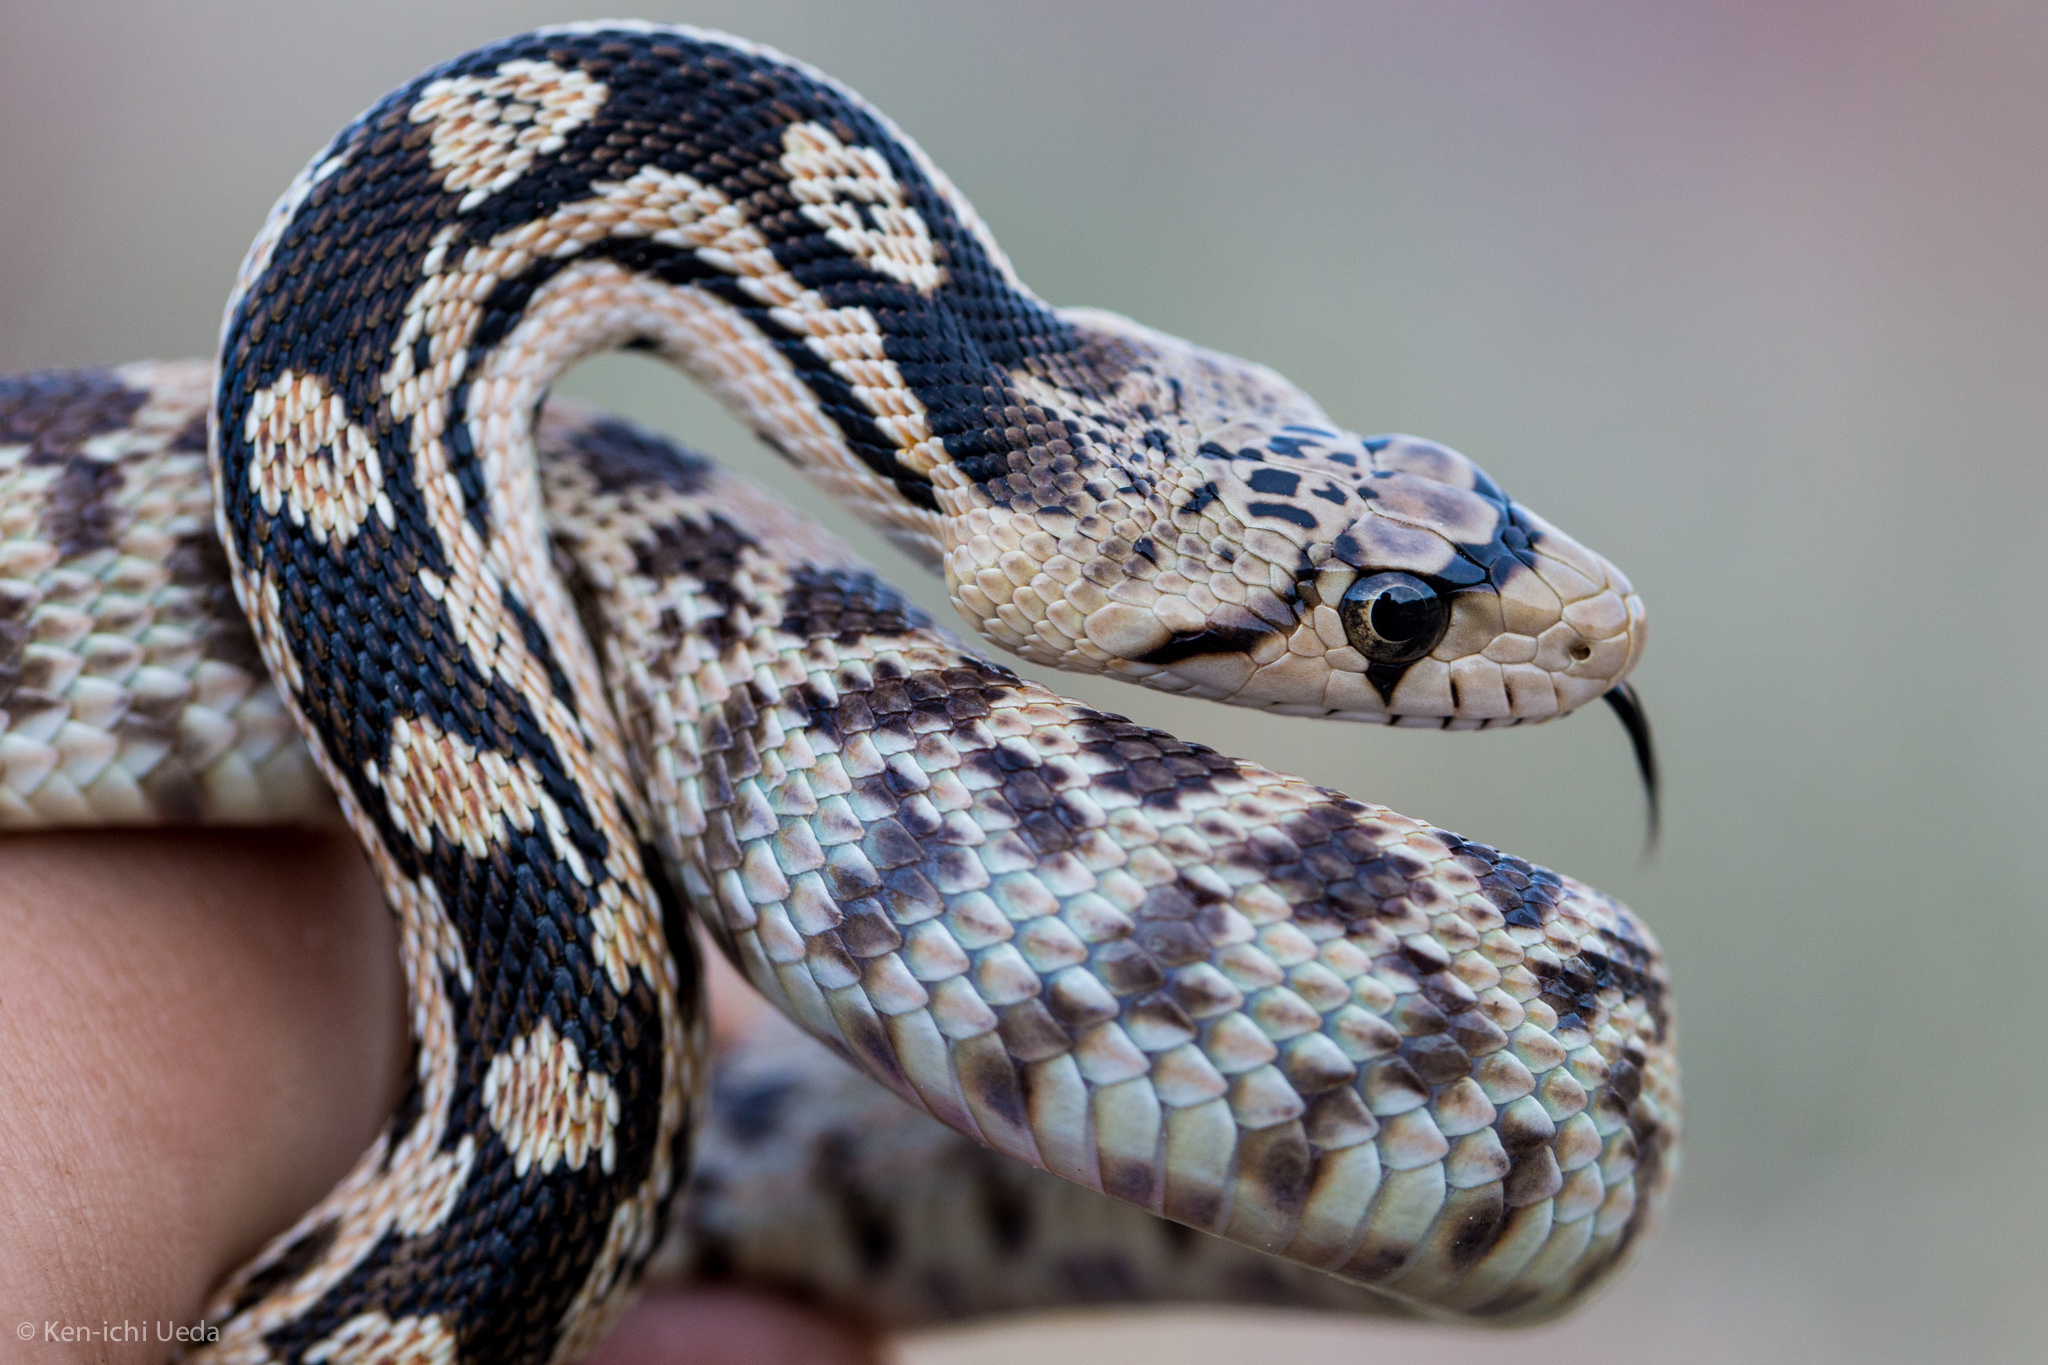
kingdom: Animalia
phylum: Chordata
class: Squamata
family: Colubridae
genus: Pituophis
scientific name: Pituophis catenifer
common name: Gopher snake
